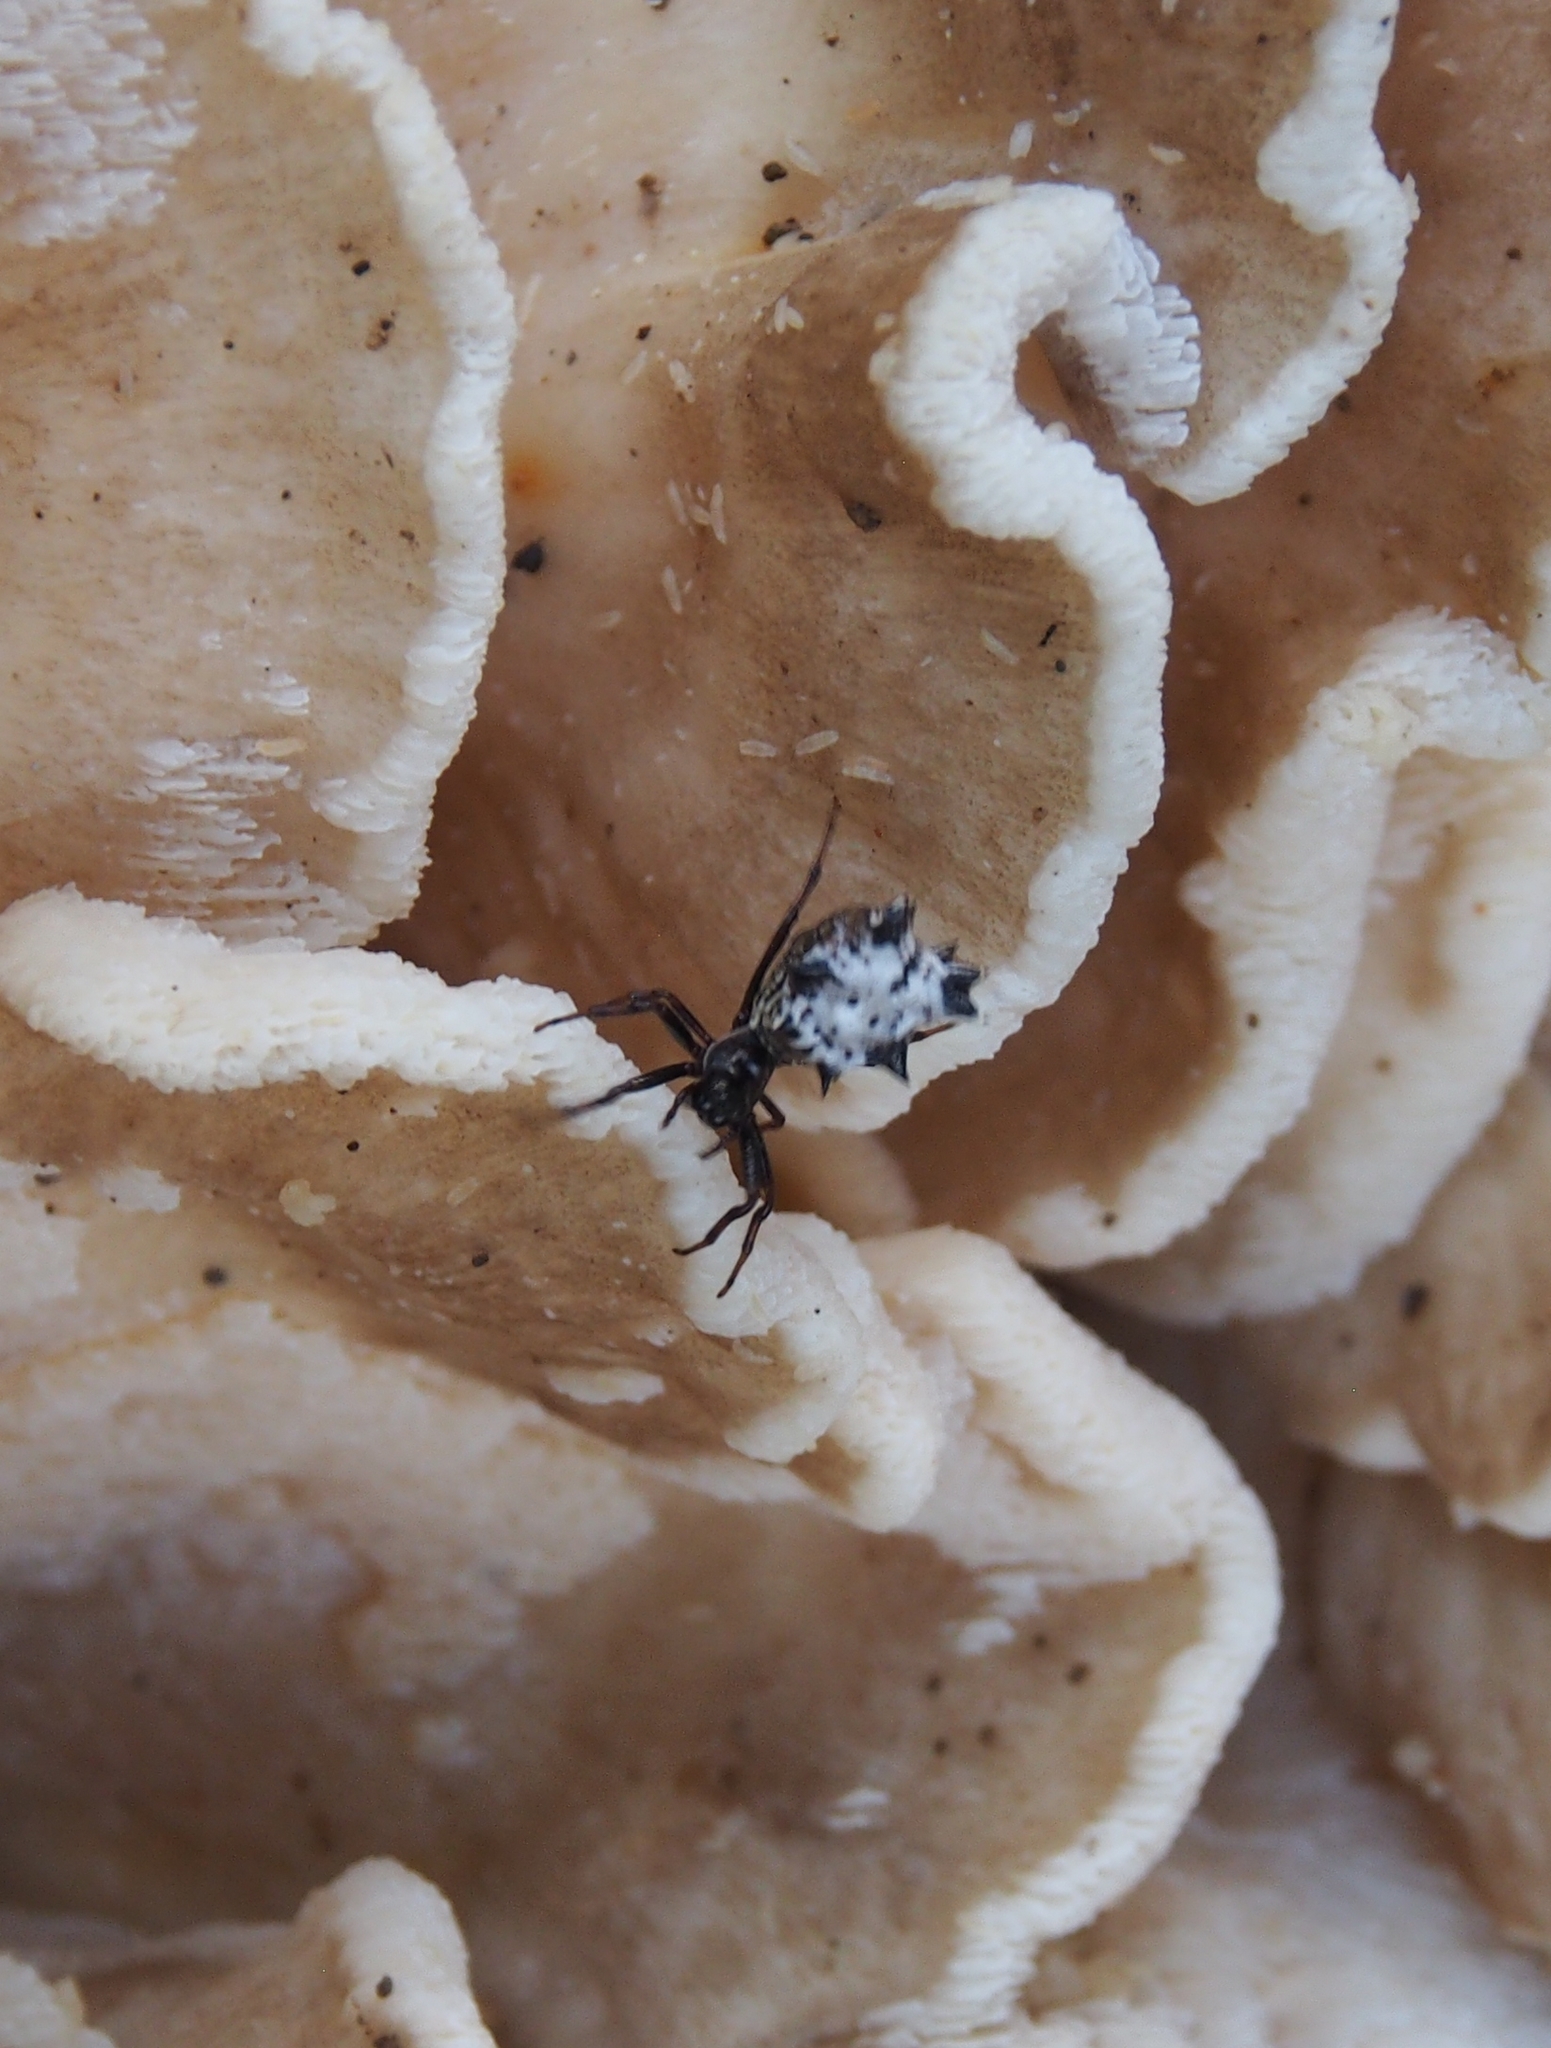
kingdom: Animalia
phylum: Arthropoda
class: Arachnida
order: Araneae
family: Araneidae
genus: Micrathena
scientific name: Micrathena gracilis
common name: Orb weavers
